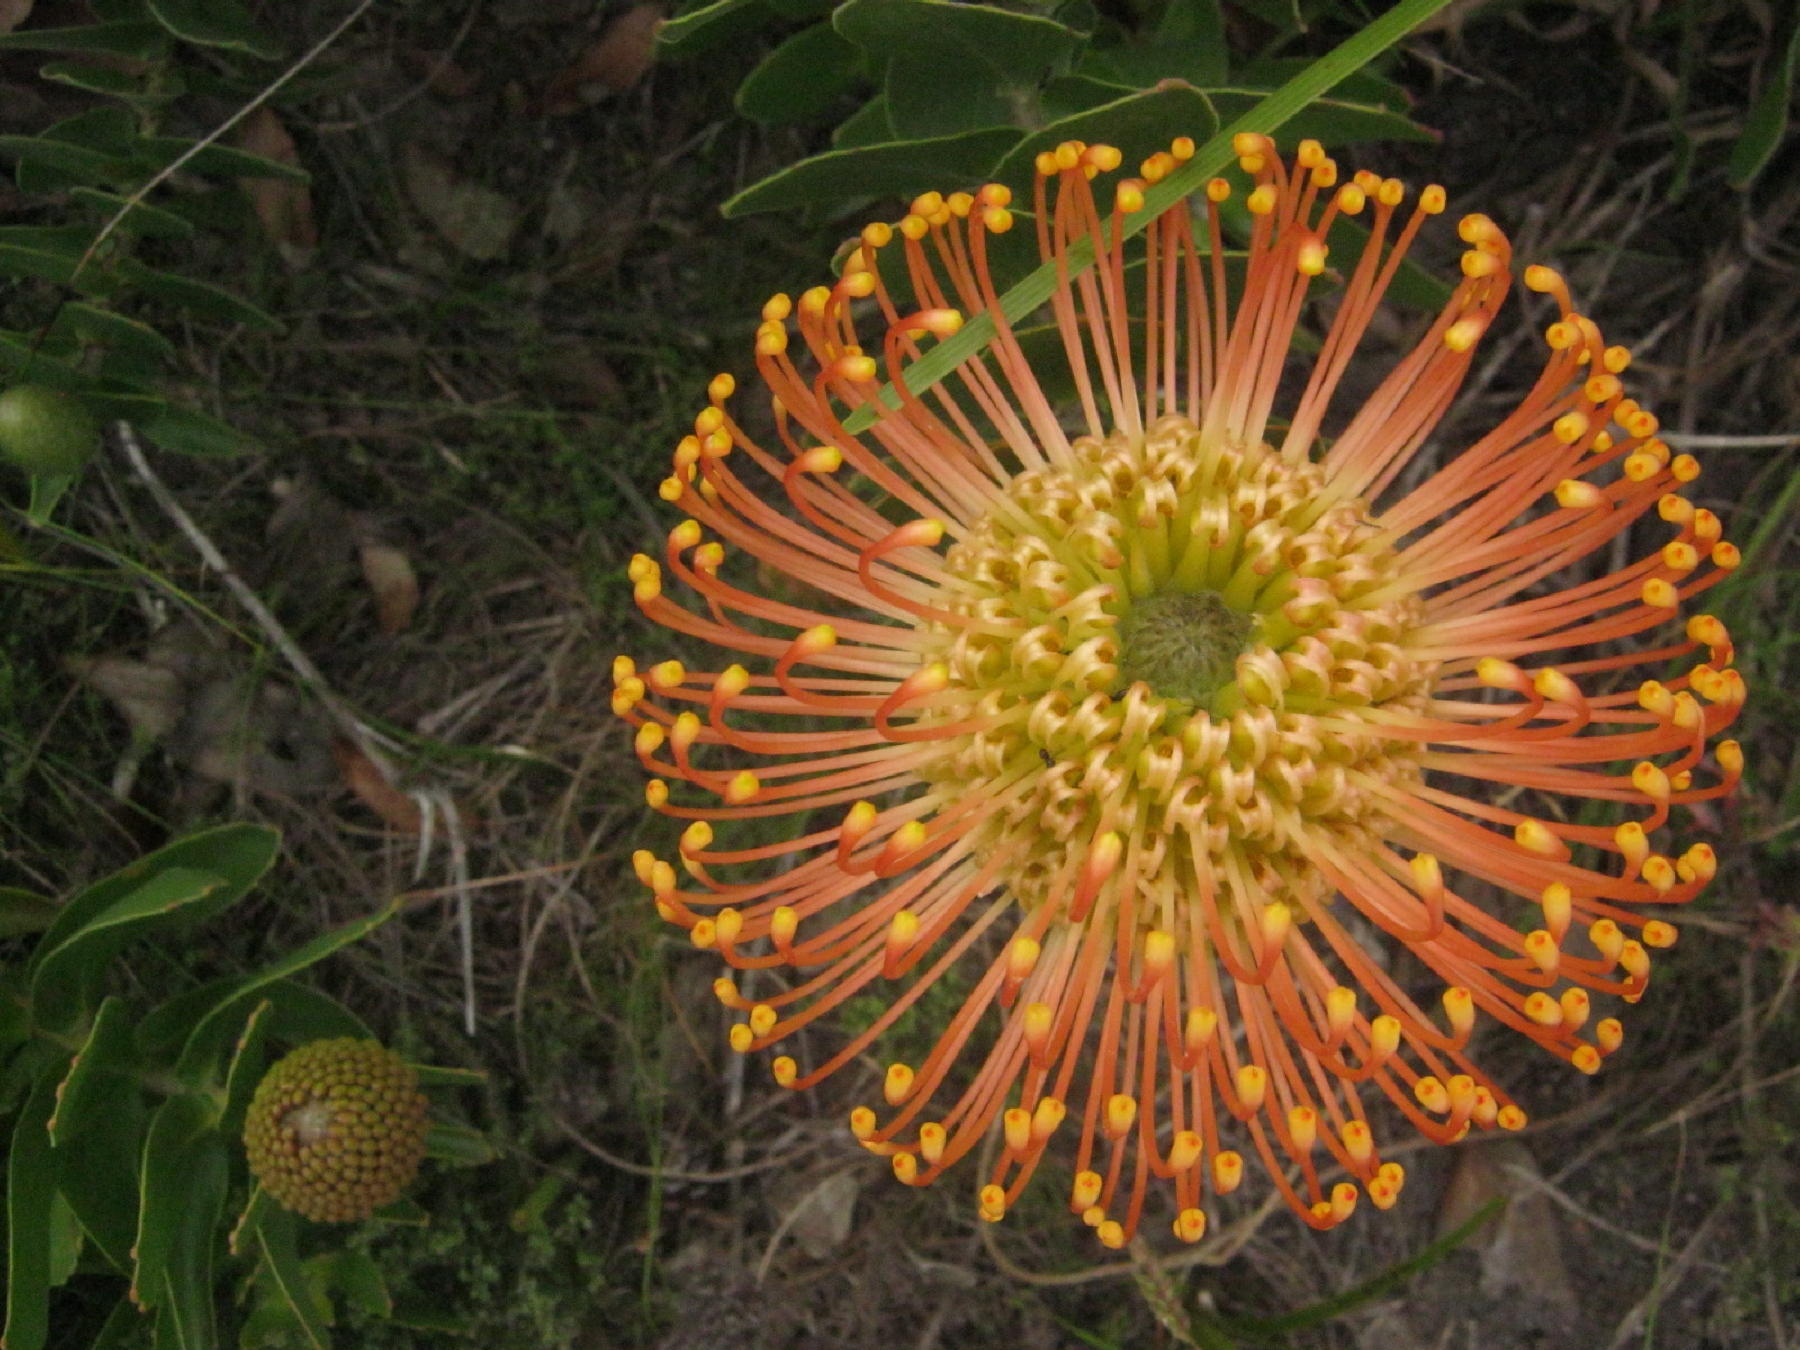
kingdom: Plantae
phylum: Tracheophyta
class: Magnoliopsida
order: Proteales
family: Proteaceae
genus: Leucospermum
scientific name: Leucospermum cordifolium
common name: Red pincushion-protea
